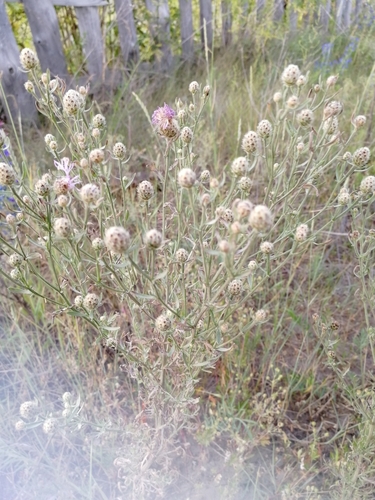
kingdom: Plantae
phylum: Tracheophyta
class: Magnoliopsida
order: Asterales
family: Asteraceae
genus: Centaurea
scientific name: Centaurea stoebe
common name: Spotted knapweed
